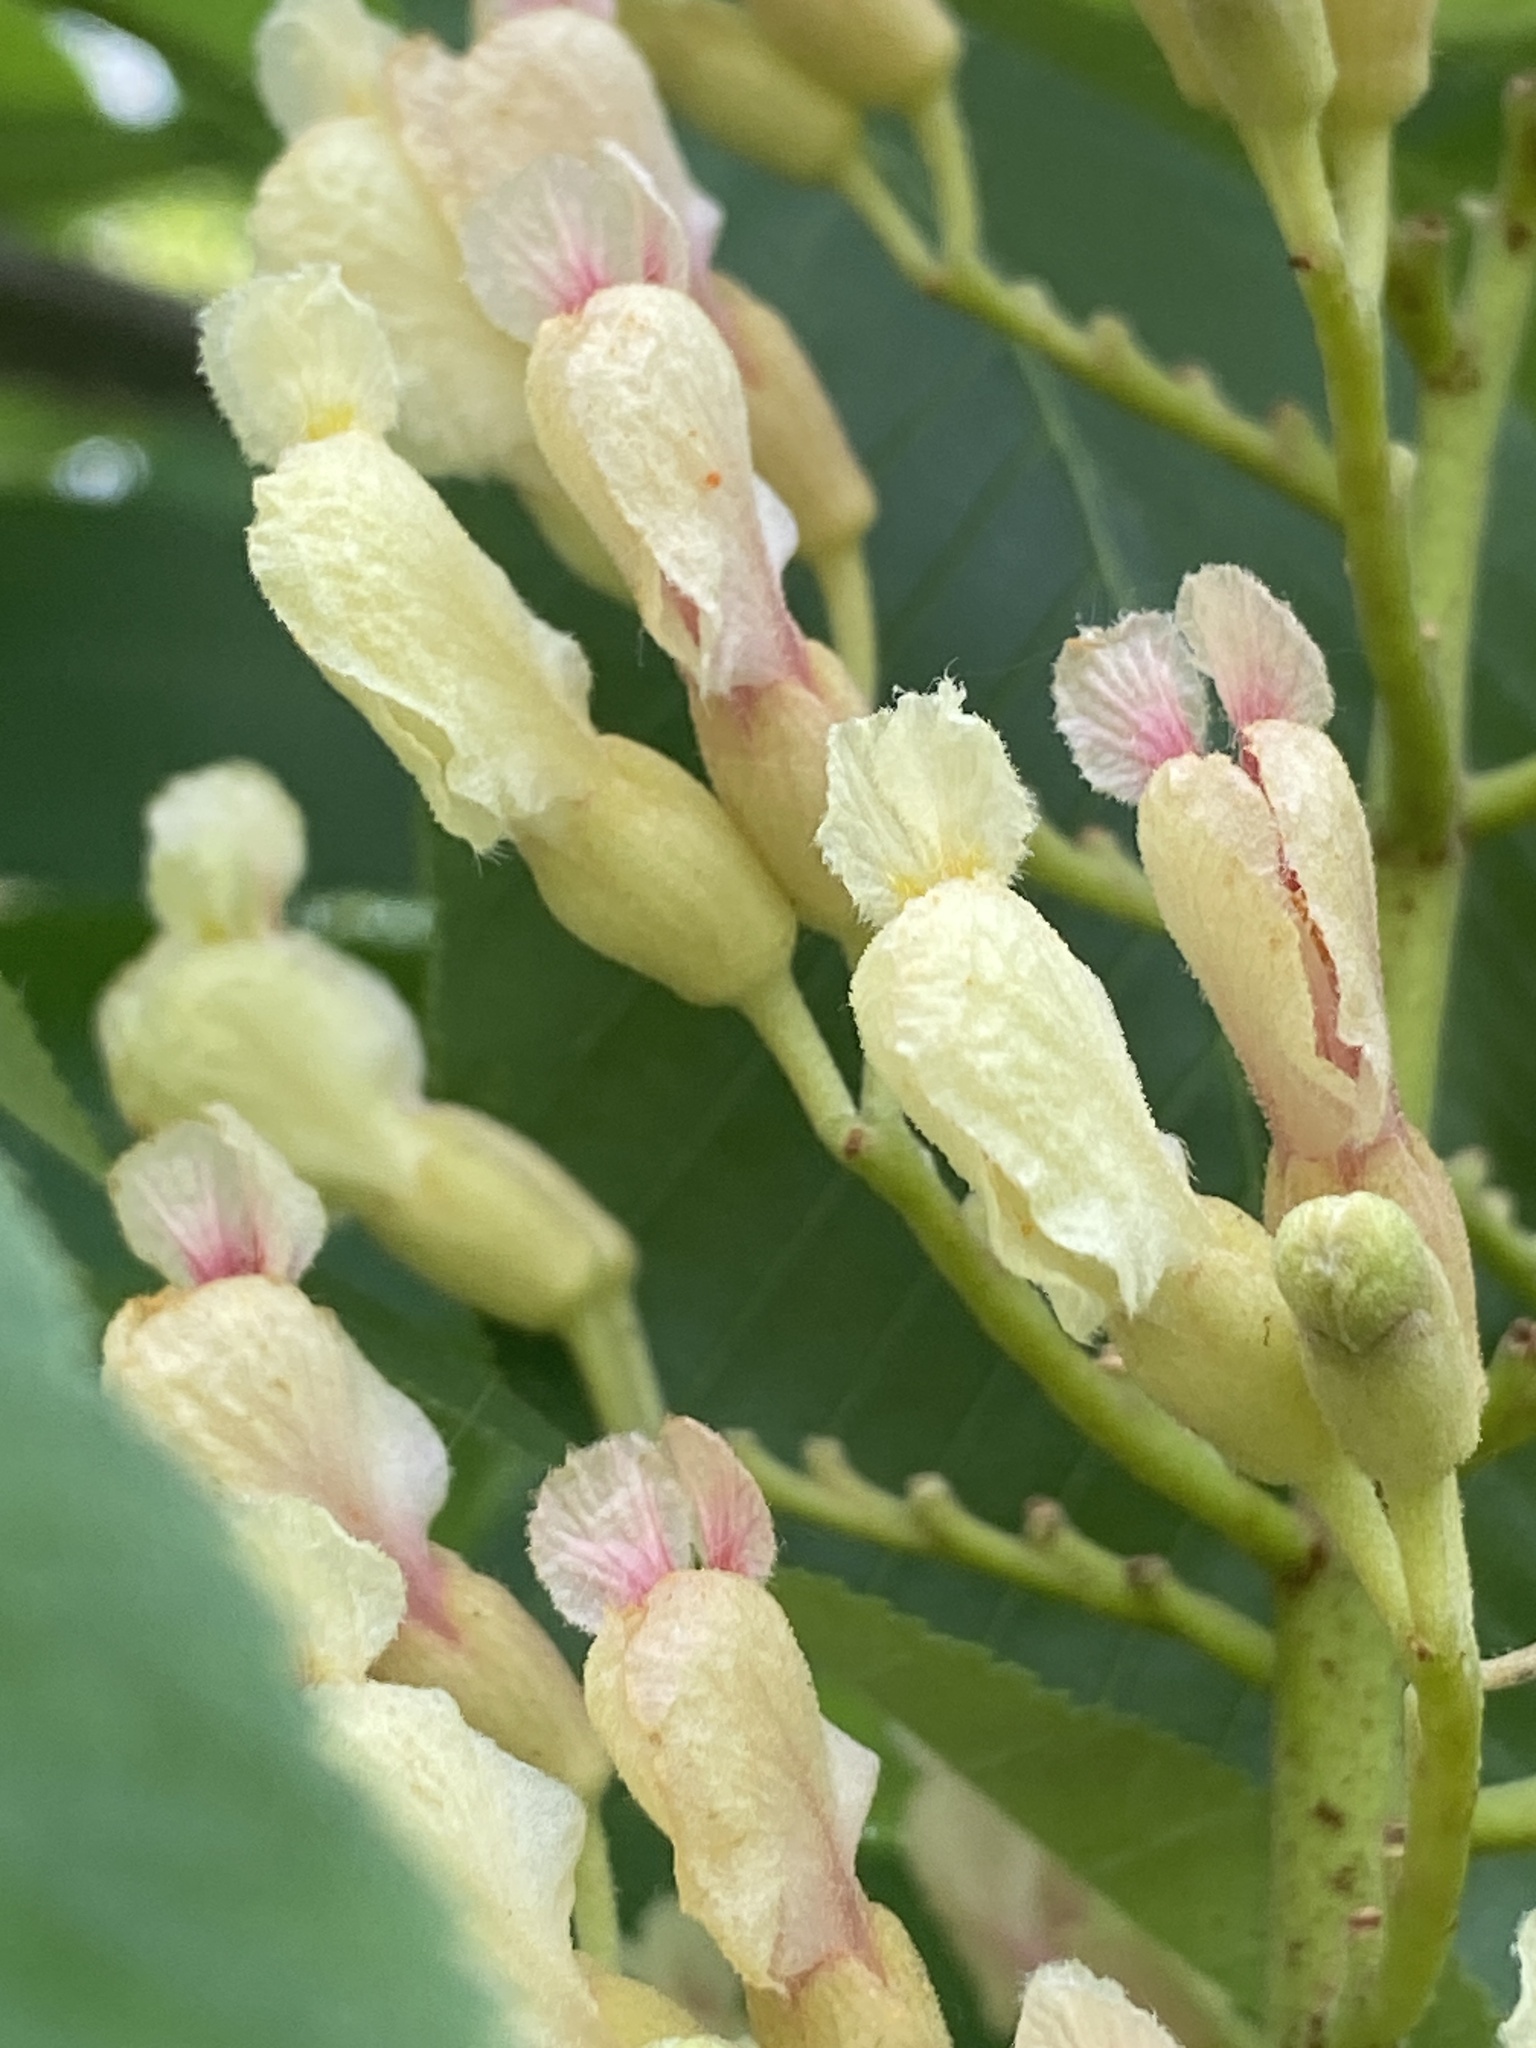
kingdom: Plantae
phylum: Tracheophyta
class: Magnoliopsida
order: Sapindales
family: Sapindaceae
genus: Aesculus
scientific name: Aesculus flava
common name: Yellow buckeye
